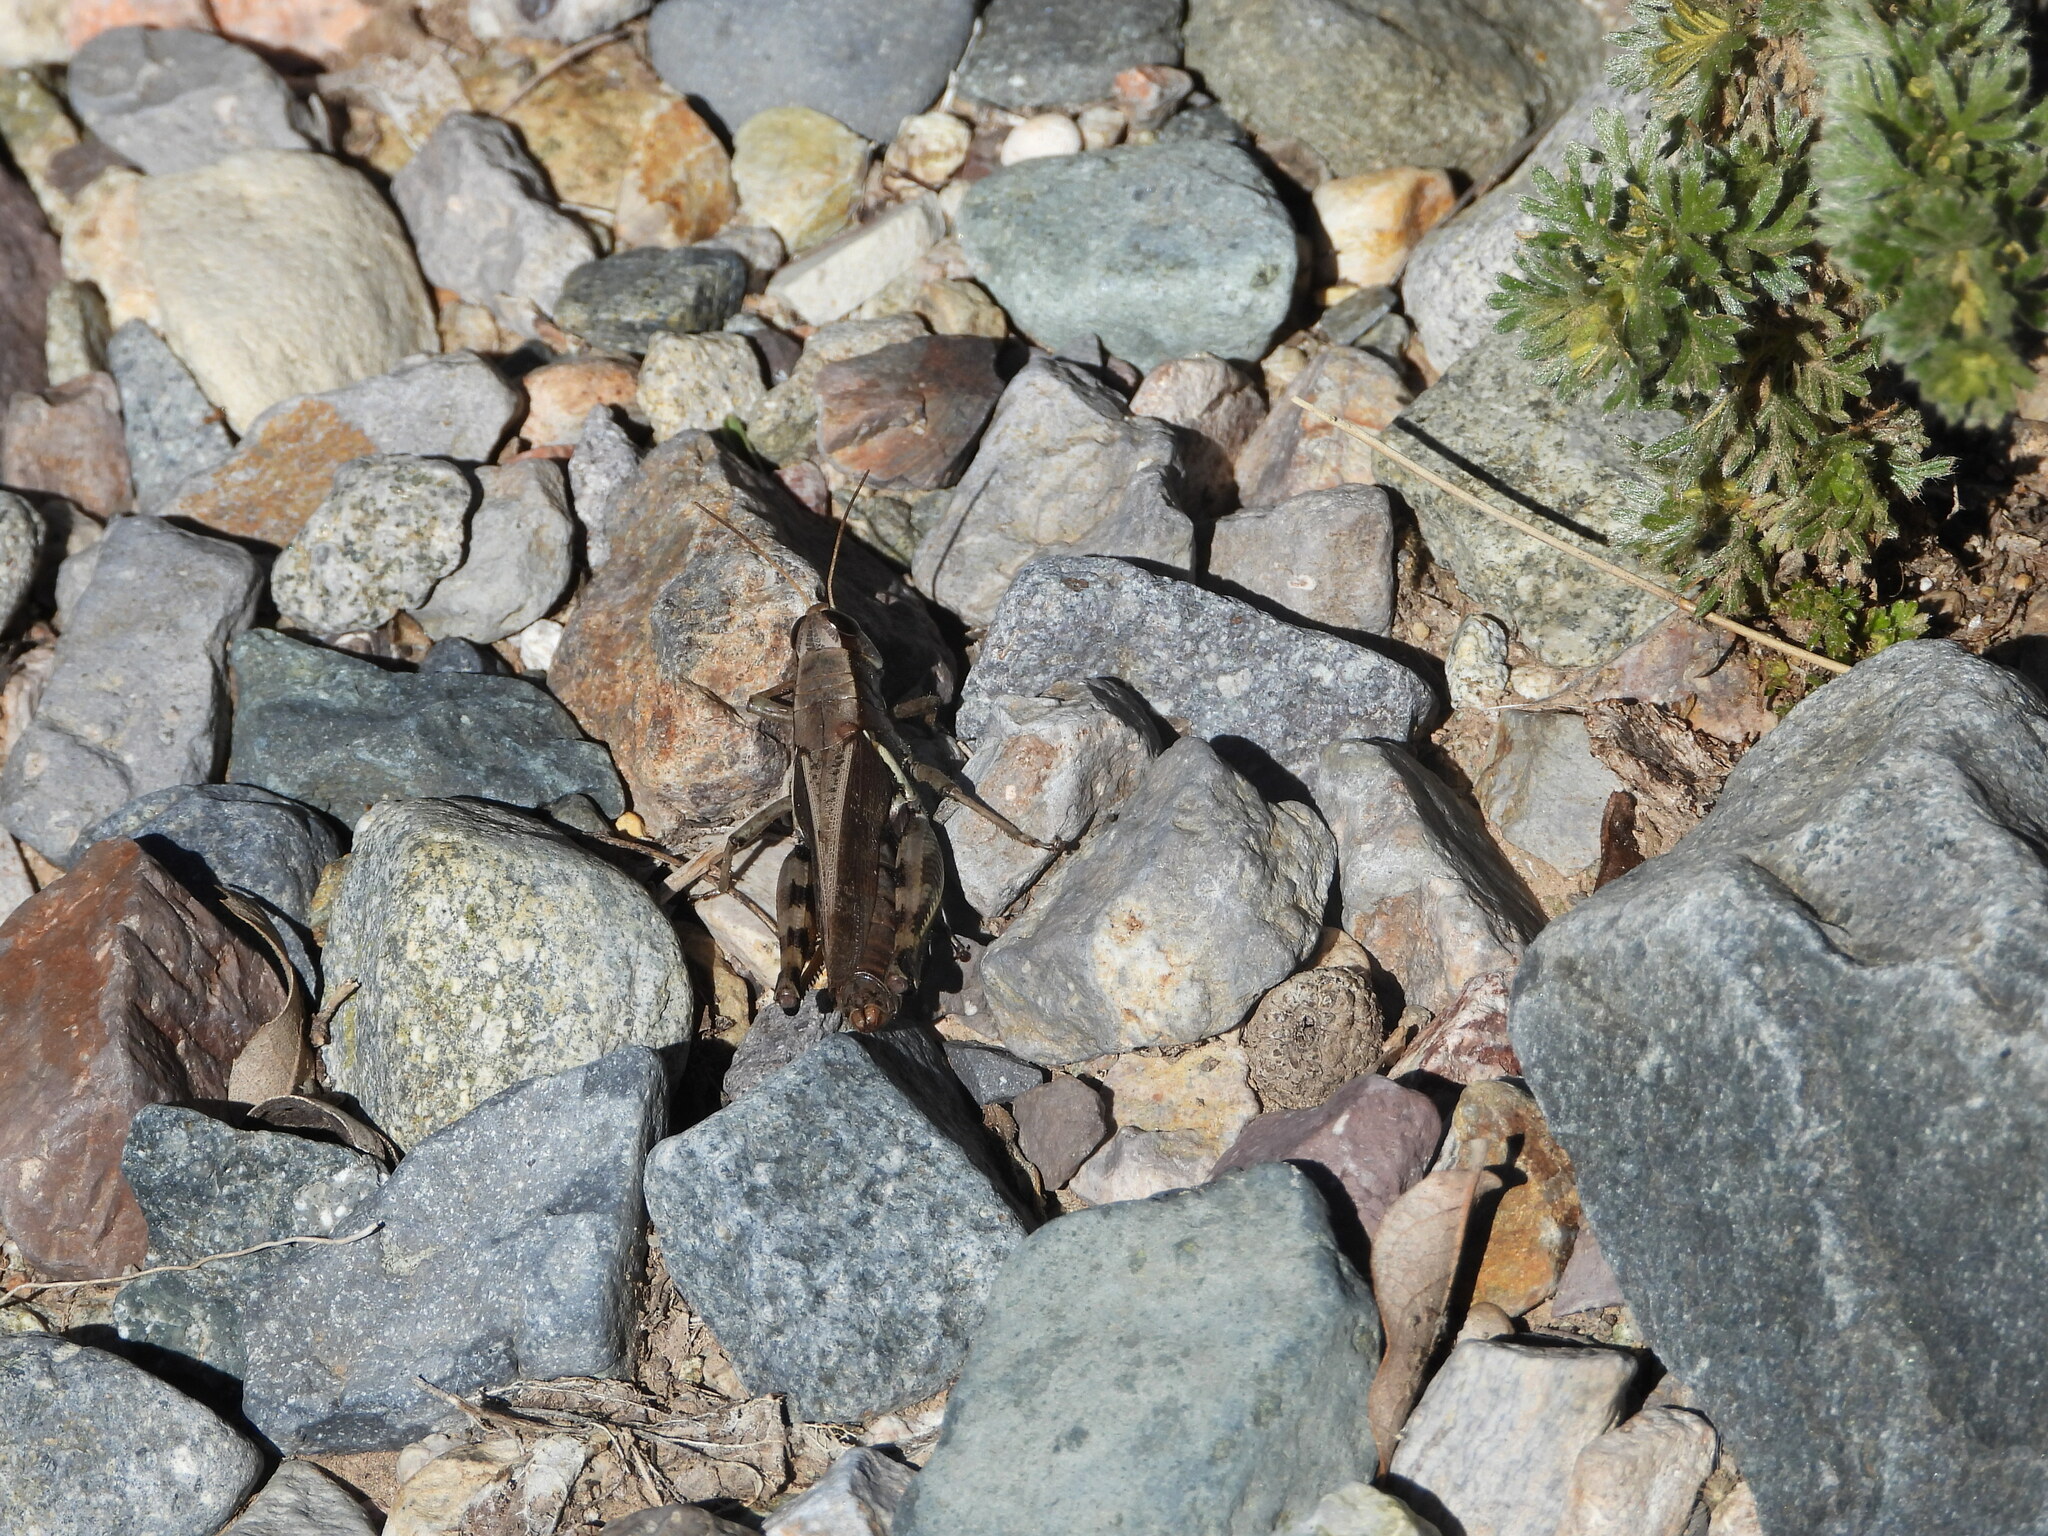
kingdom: Animalia
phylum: Arthropoda
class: Insecta
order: Orthoptera
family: Acrididae
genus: Melanoplus
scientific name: Melanoplus eumera
